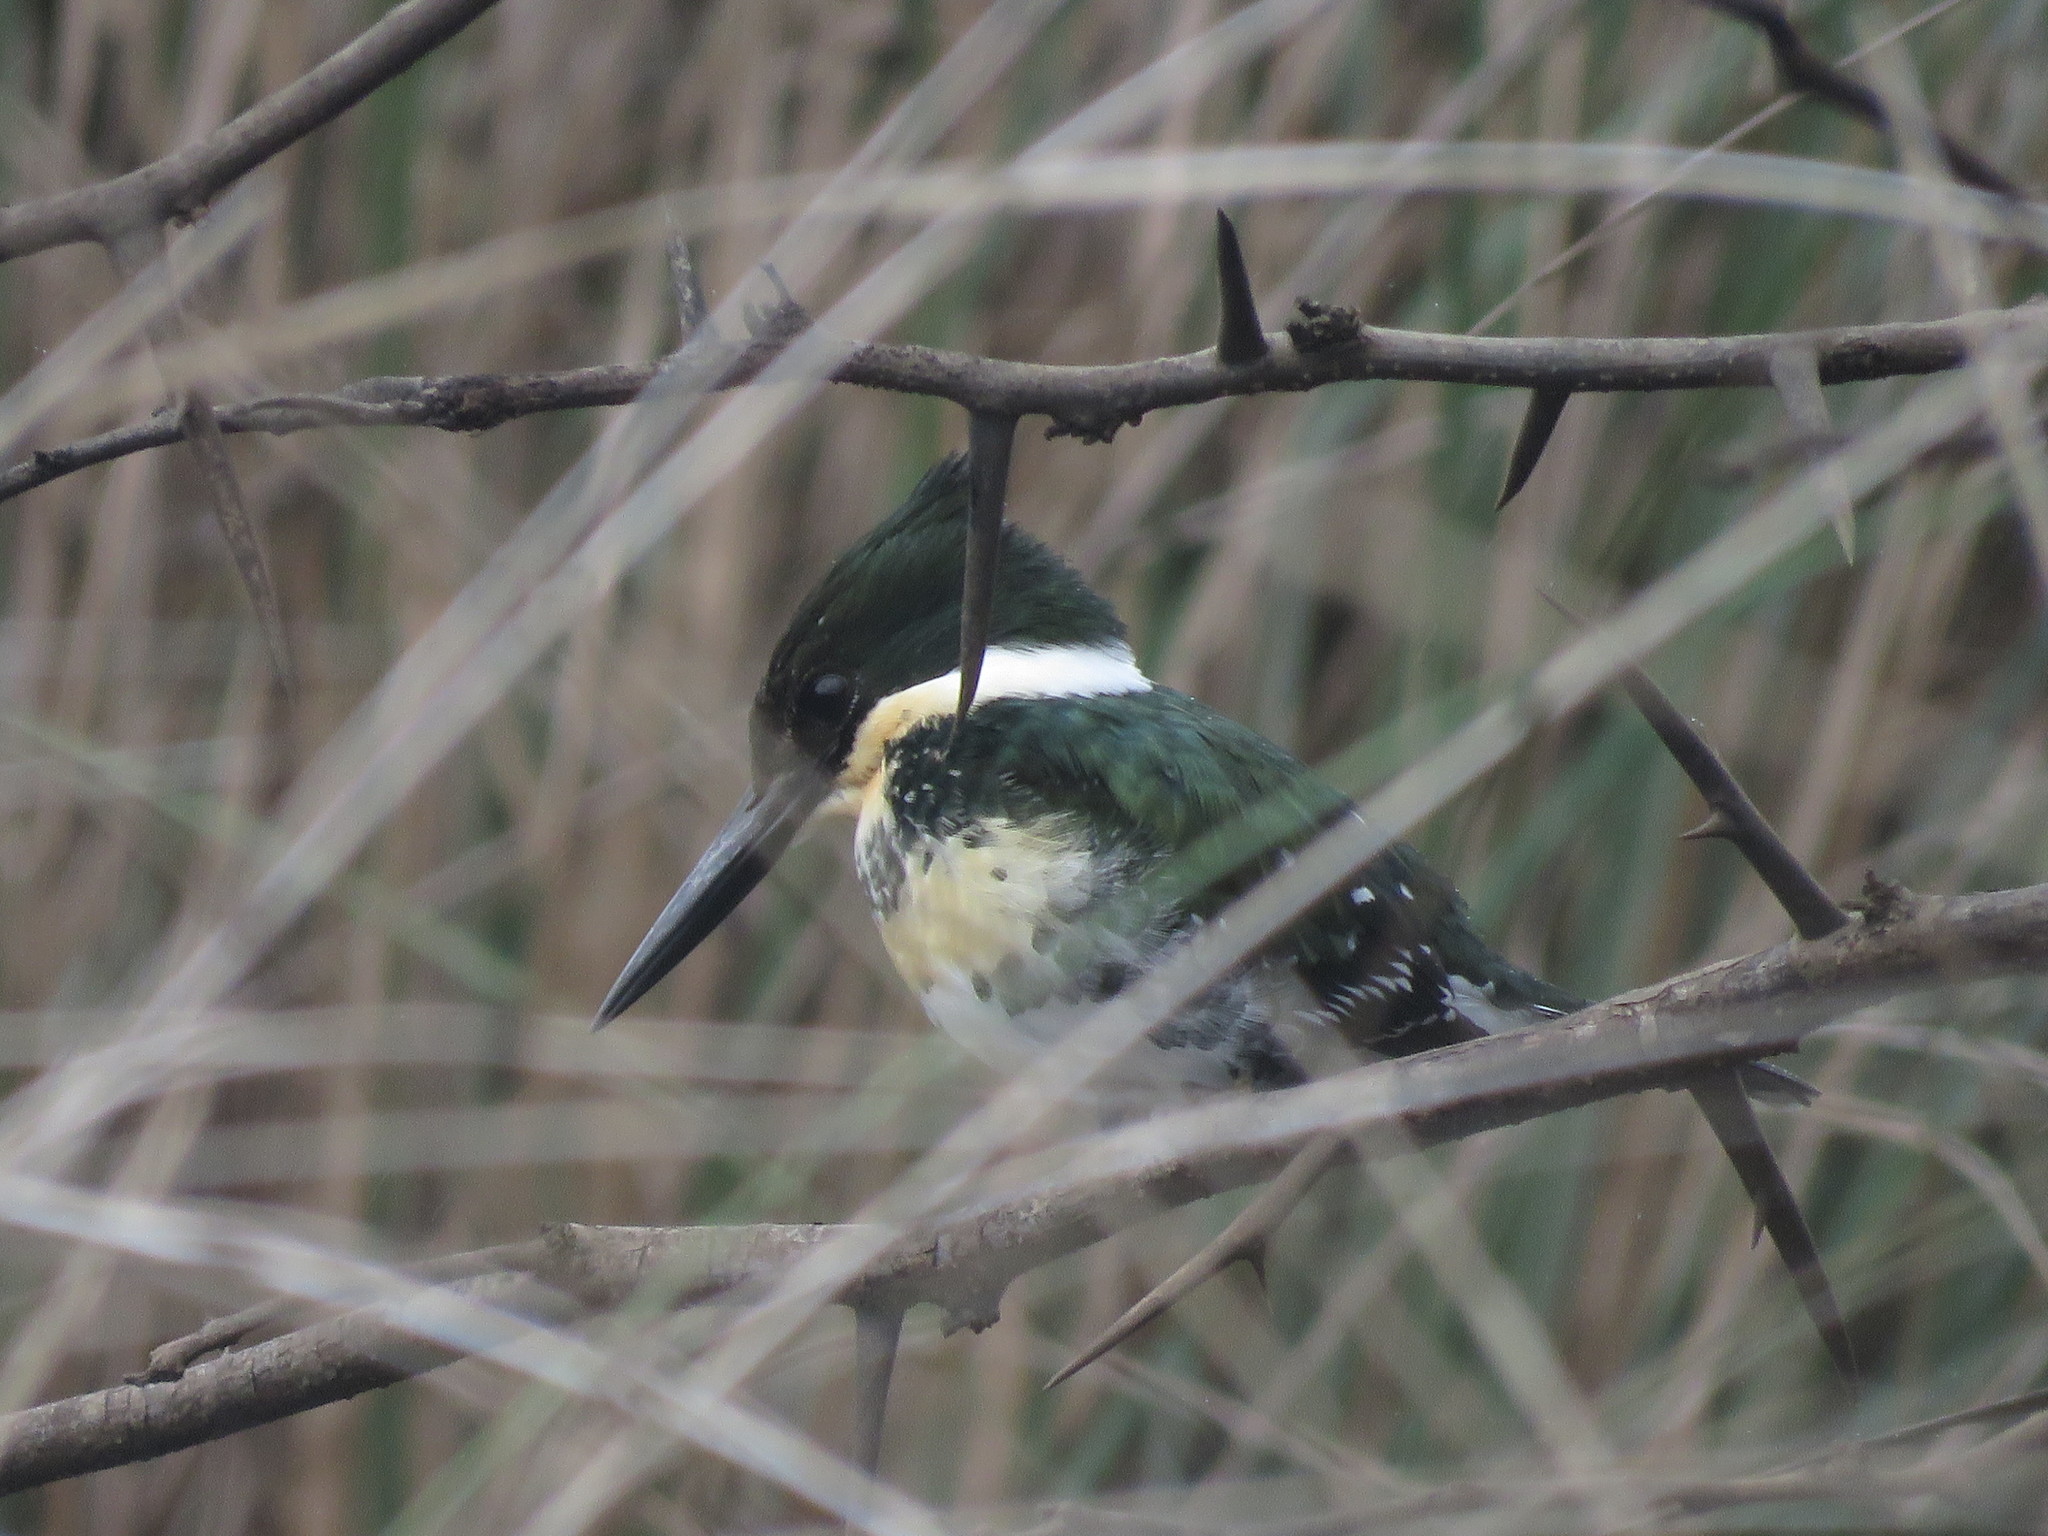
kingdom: Animalia
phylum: Chordata
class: Aves
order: Coraciiformes
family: Alcedinidae
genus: Chloroceryle
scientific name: Chloroceryle americana
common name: Green kingfisher
